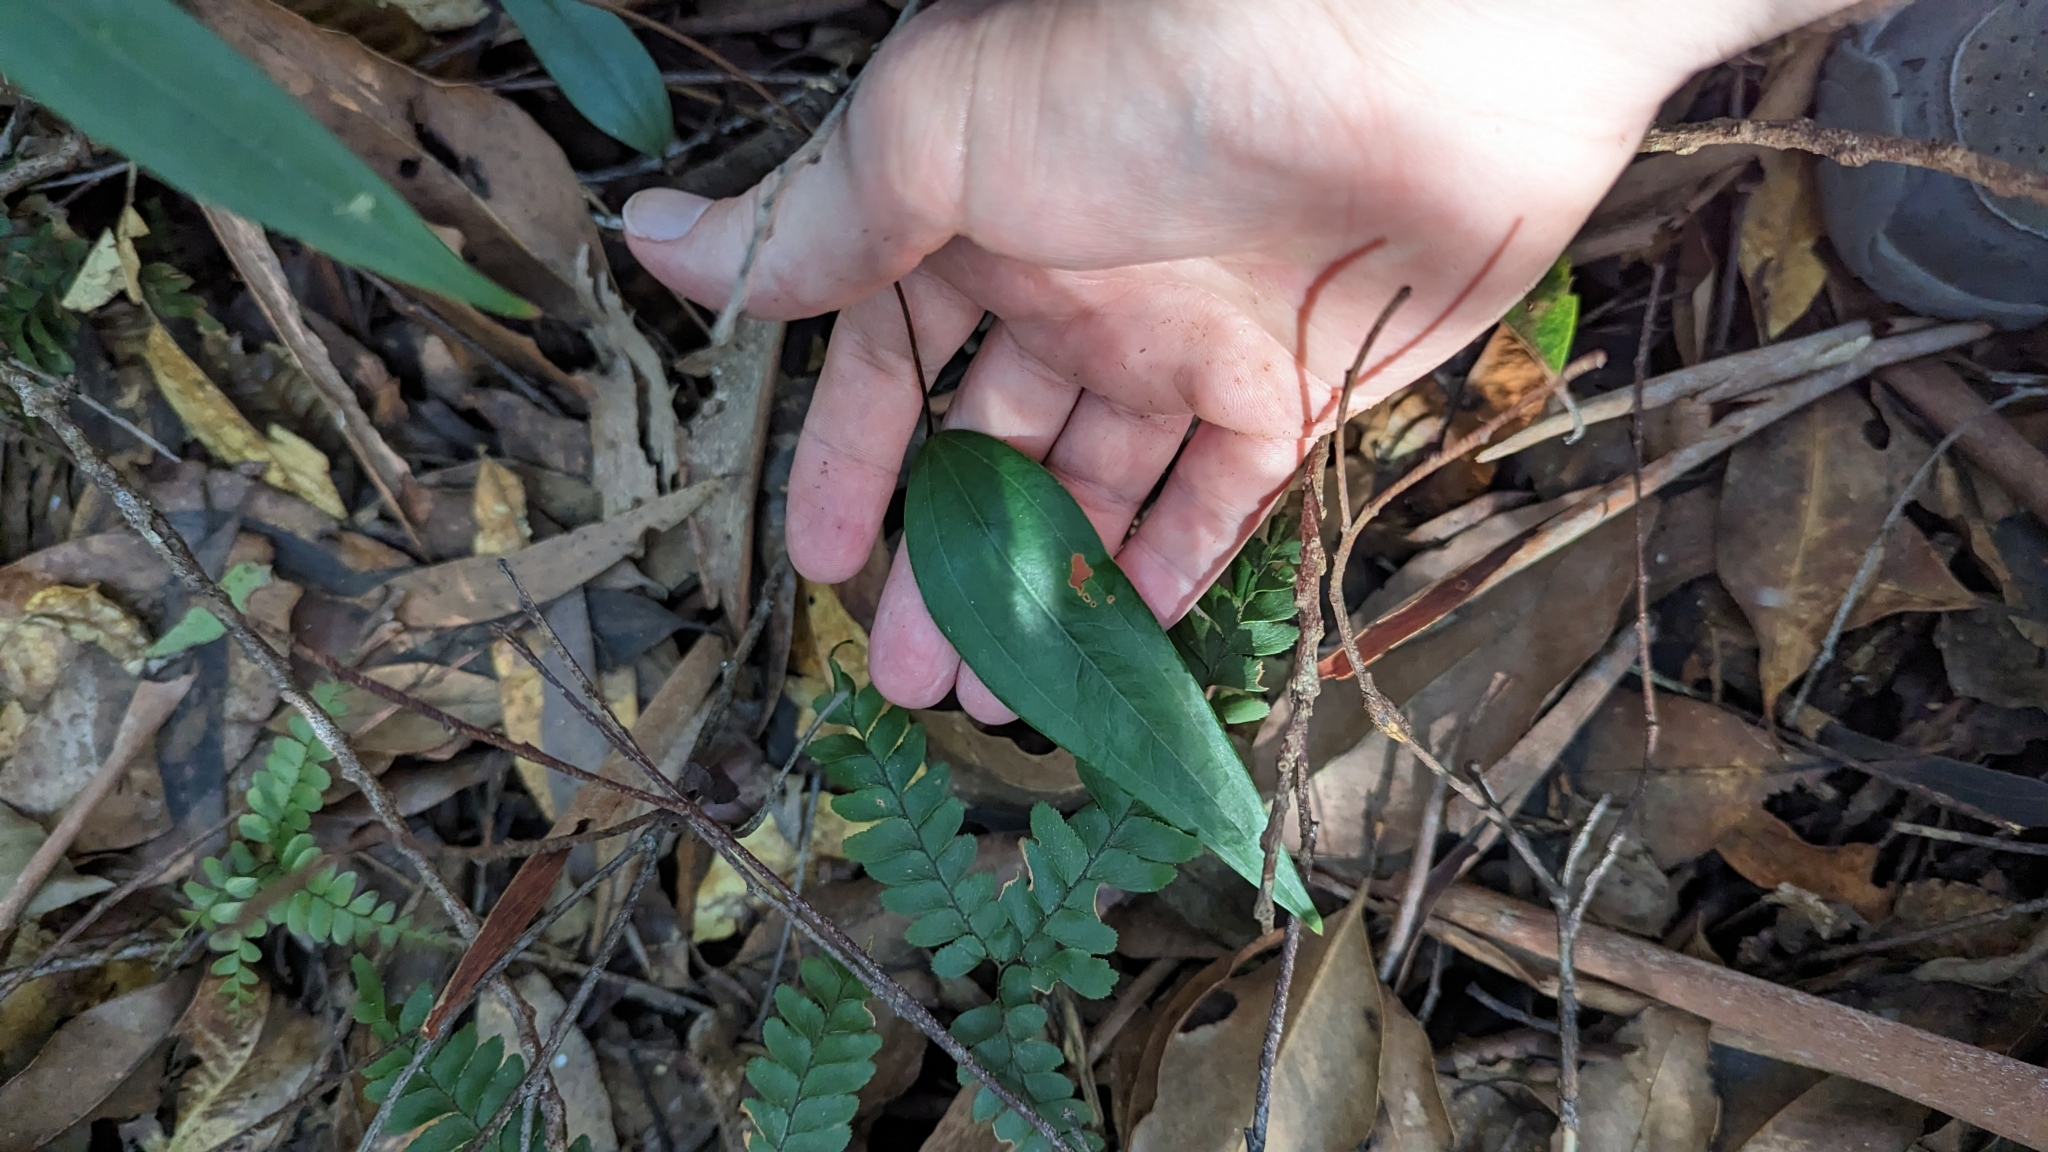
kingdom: Plantae
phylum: Tracheophyta
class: Liliopsida
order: Liliales
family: Smilacaceae
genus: Smilax
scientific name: Smilax glyciphylla
